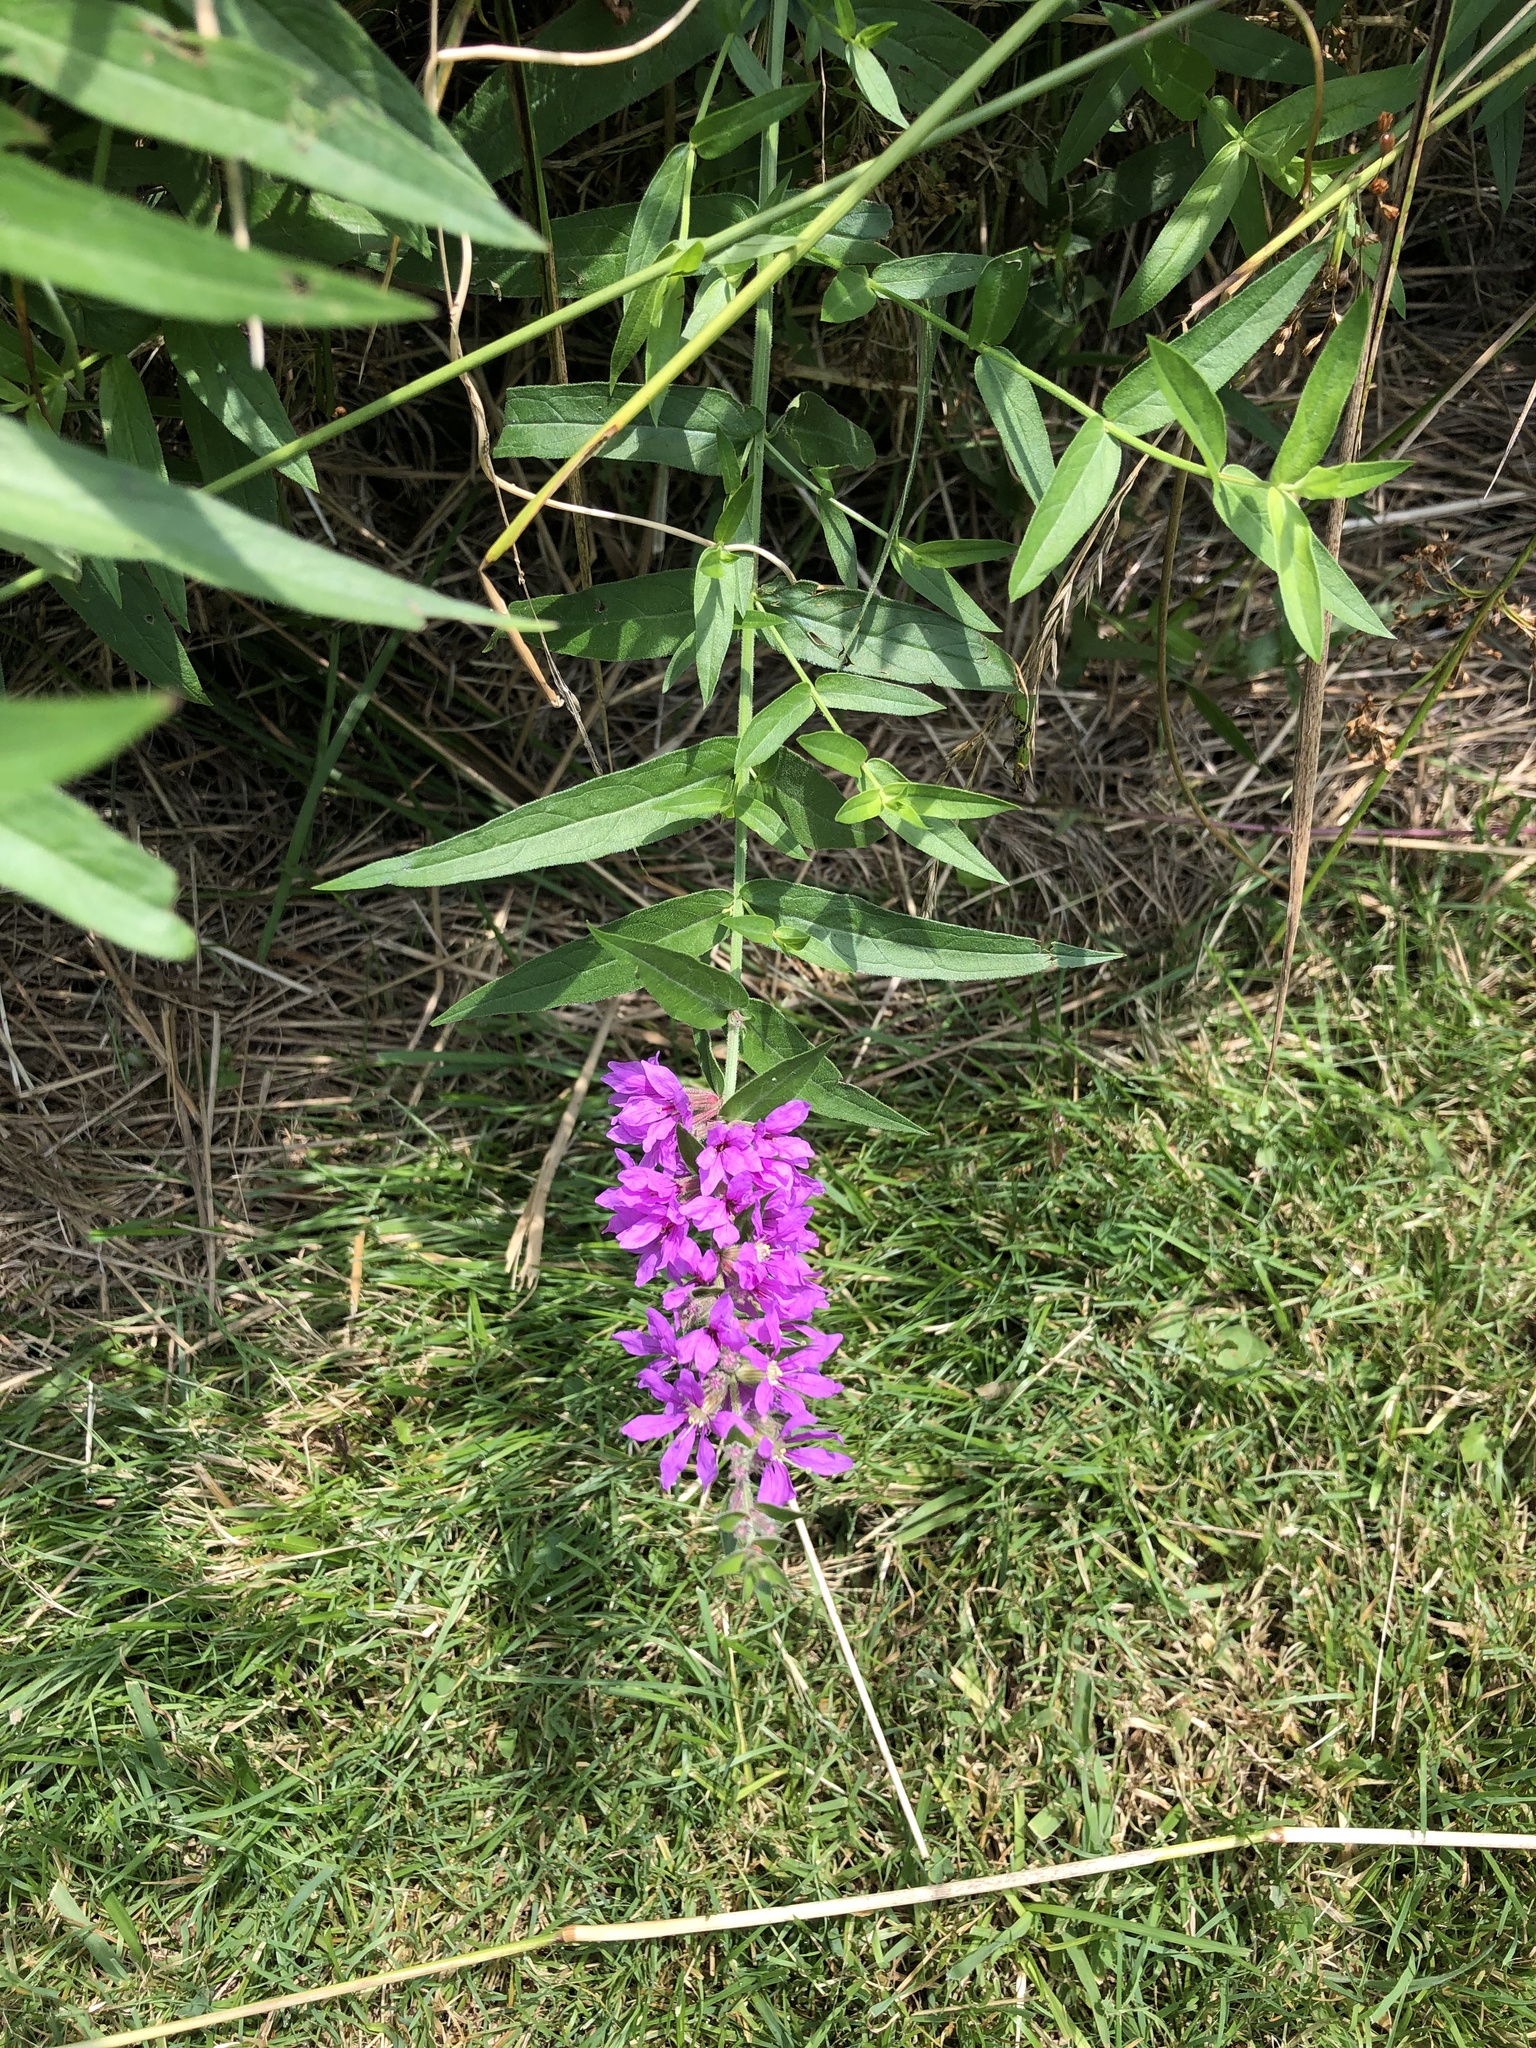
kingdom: Plantae
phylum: Tracheophyta
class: Magnoliopsida
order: Myrtales
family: Lythraceae
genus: Lythrum
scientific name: Lythrum salicaria
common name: Purple loosestrife
